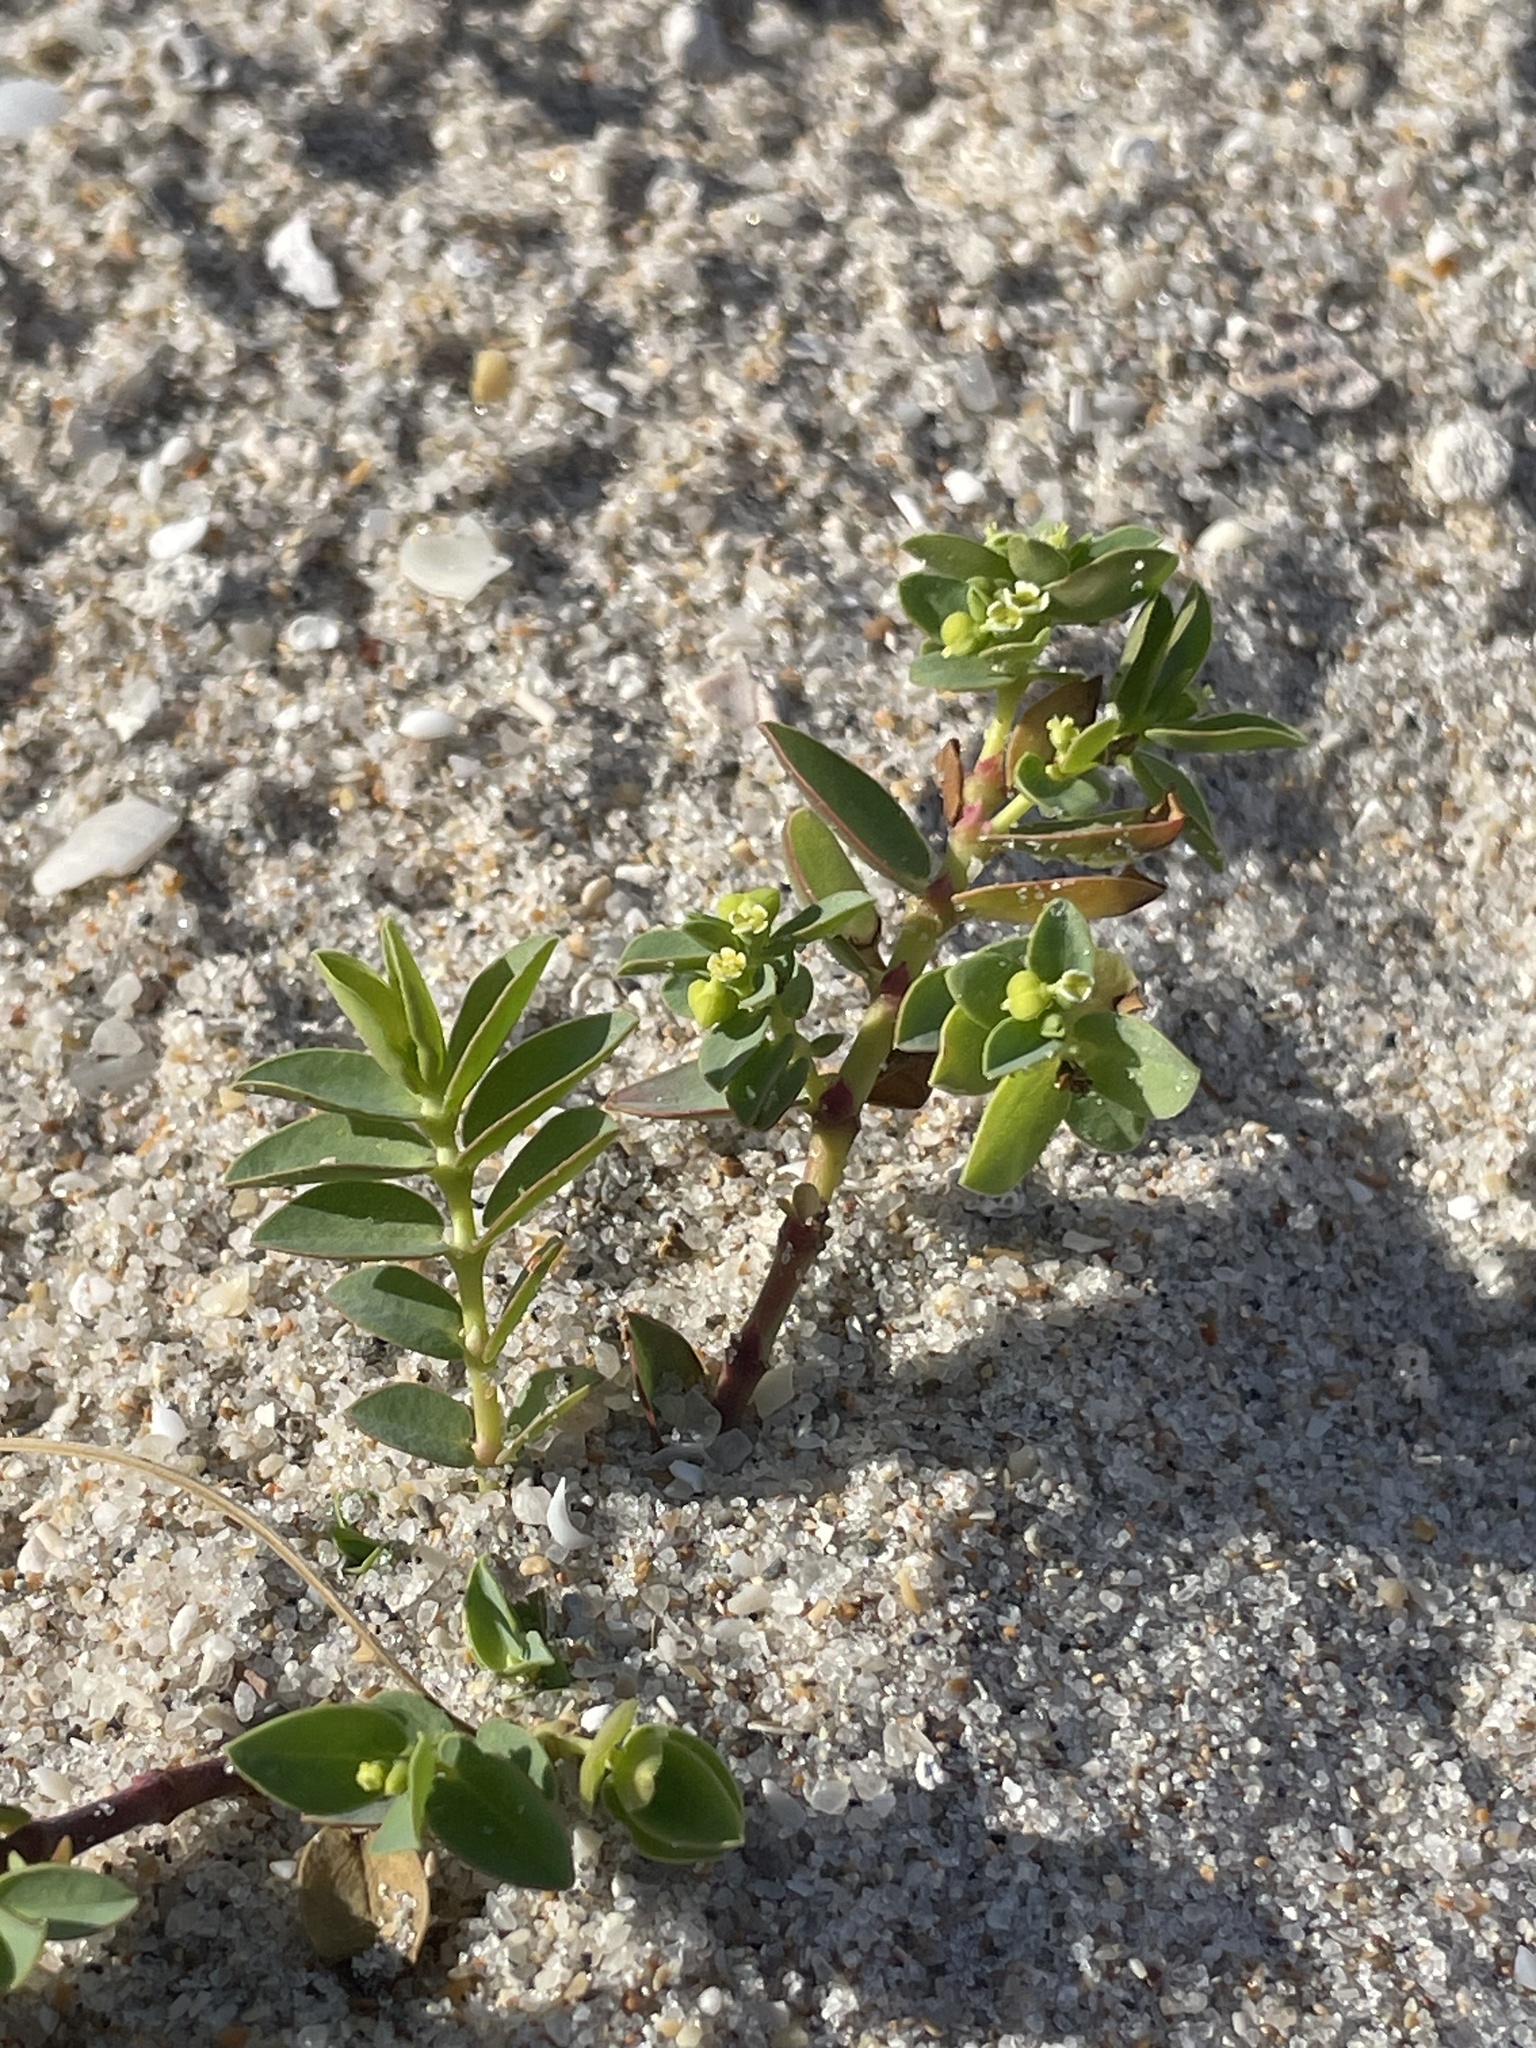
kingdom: Plantae
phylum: Tracheophyta
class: Magnoliopsida
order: Malpighiales
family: Euphorbiaceae
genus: Euphorbia
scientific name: Euphorbia mesembryanthemifolia
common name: Coastal beach sandmat
